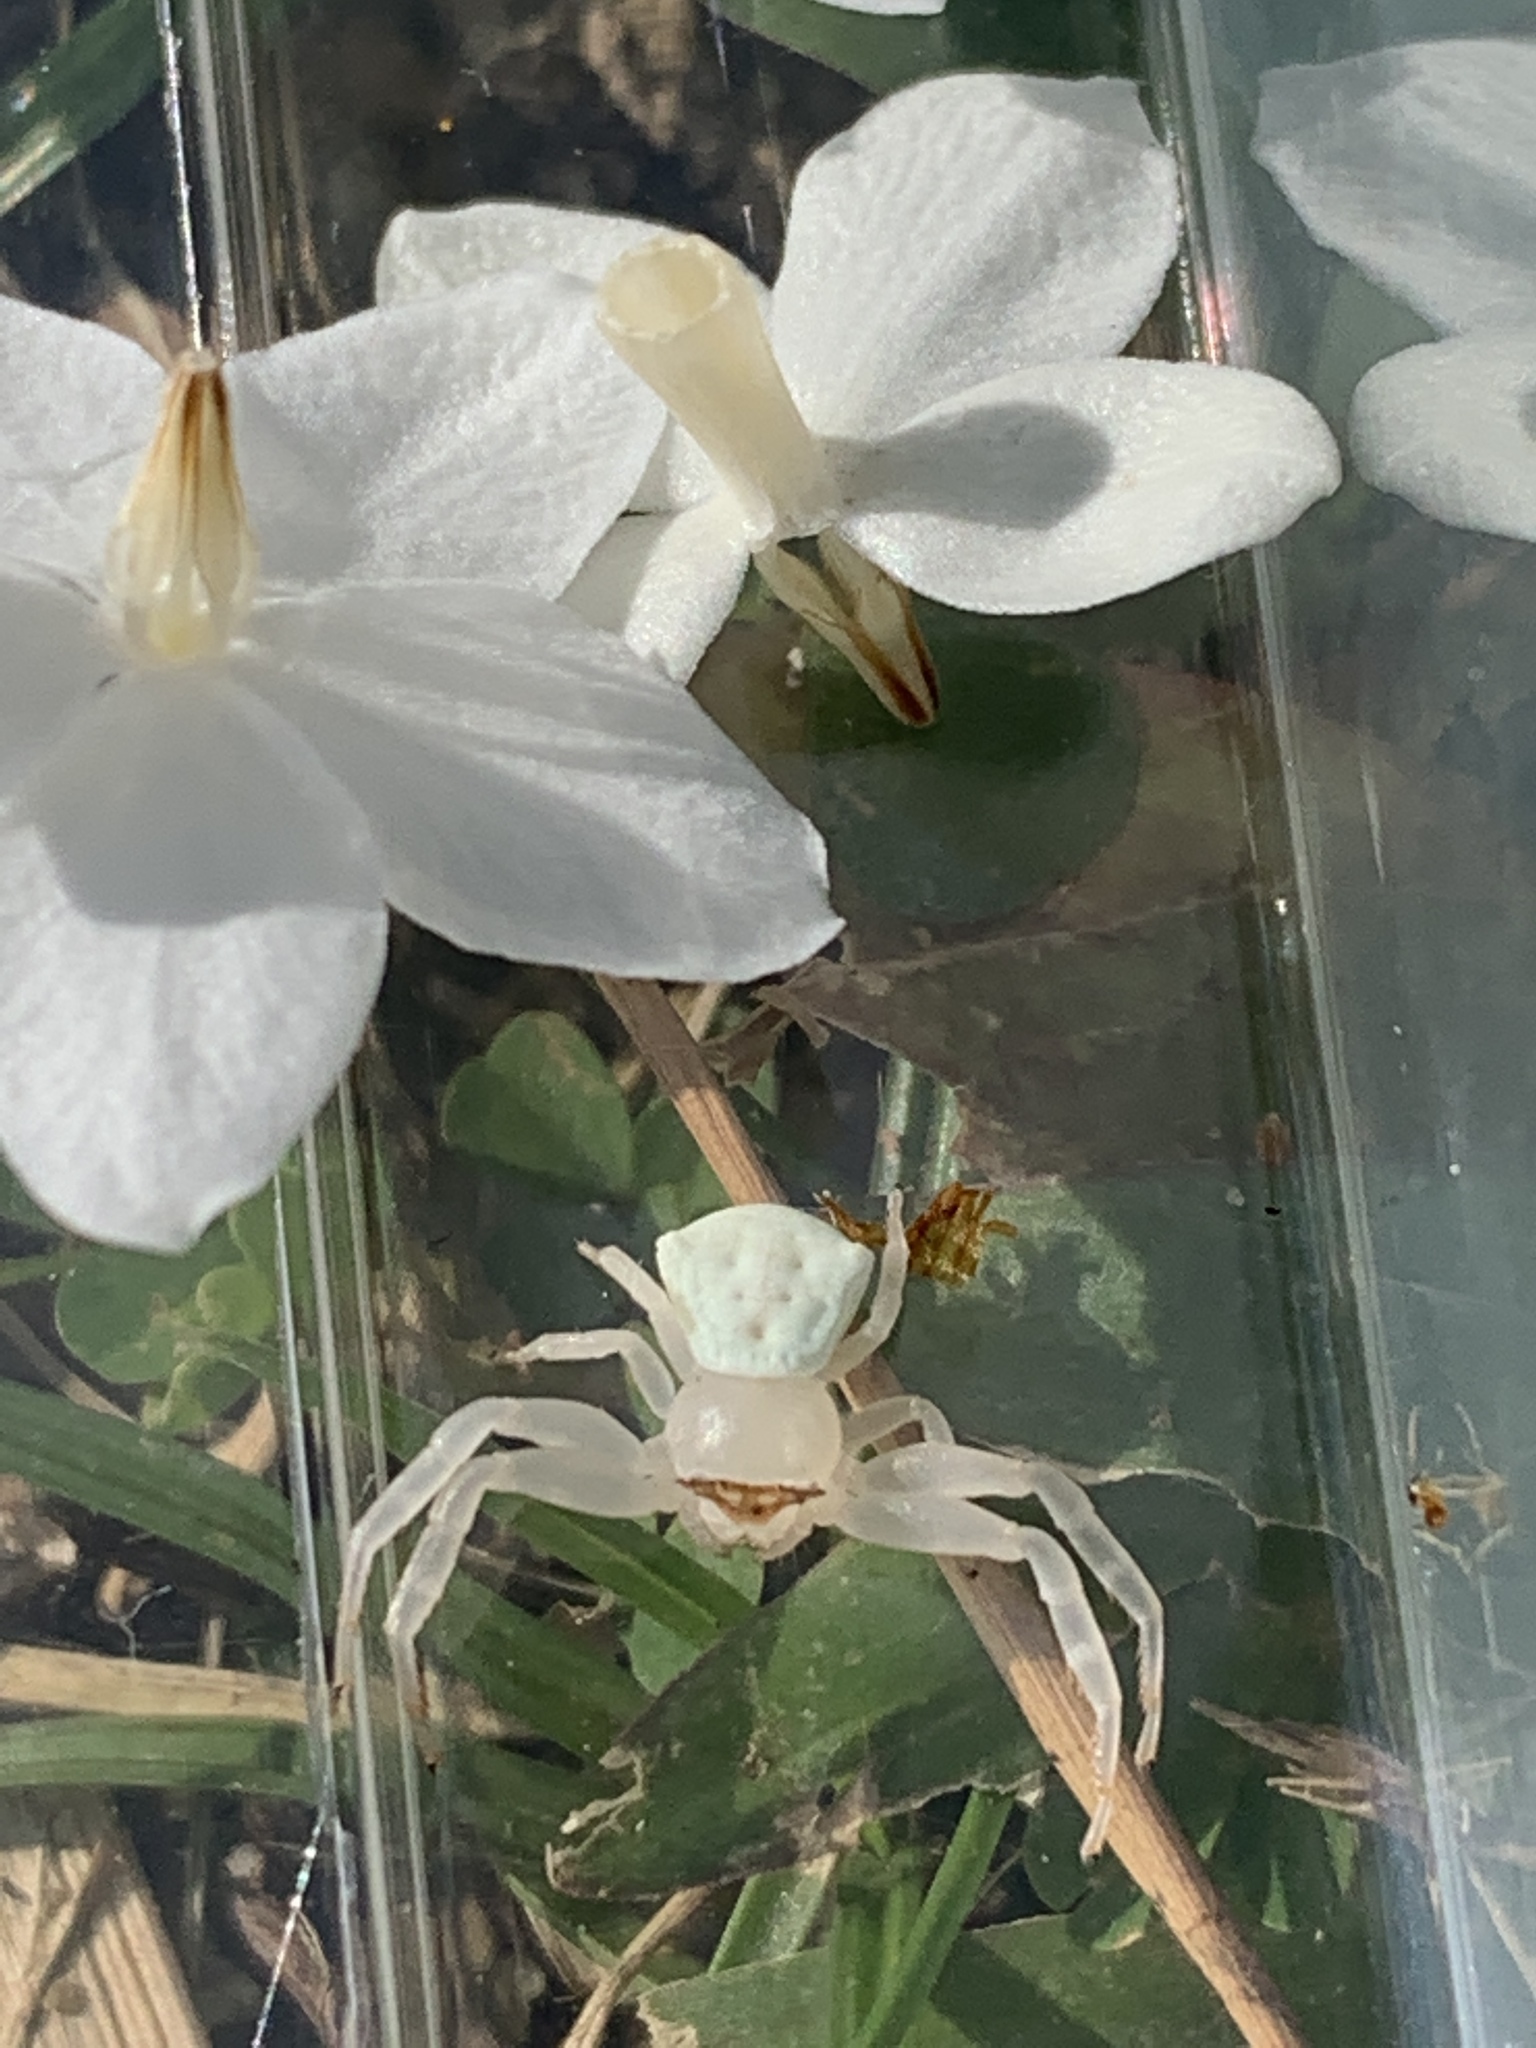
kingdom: Animalia
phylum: Arthropoda
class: Arachnida
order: Araneae
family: Thomisidae
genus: Thomisus
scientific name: Thomisus labefactus
